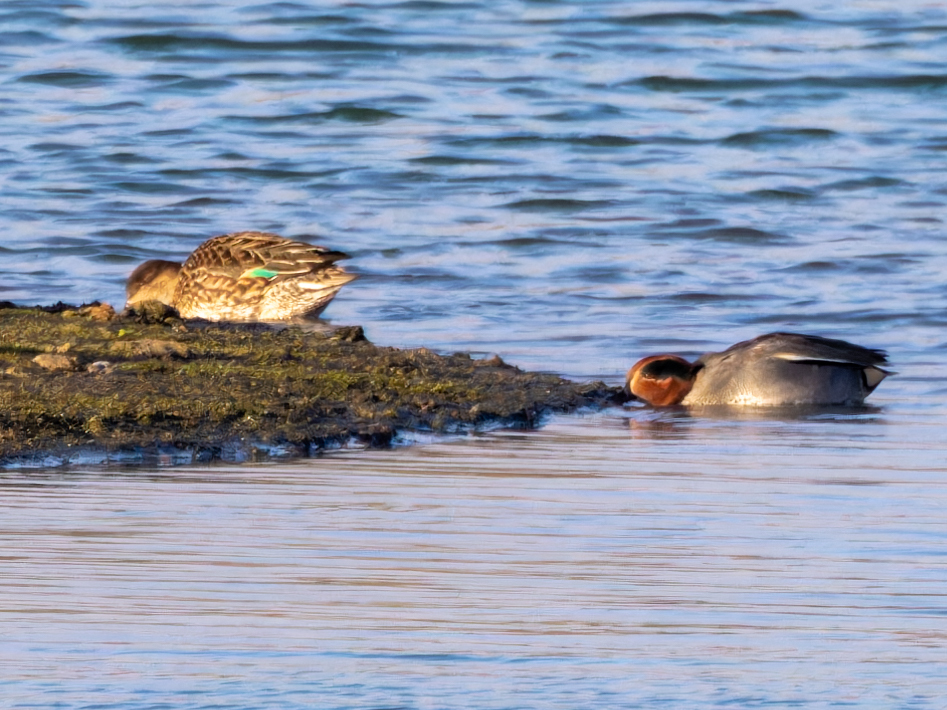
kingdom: Animalia
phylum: Chordata
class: Aves
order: Anseriformes
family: Anatidae
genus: Anas
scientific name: Anas crecca
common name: Eurasian teal
